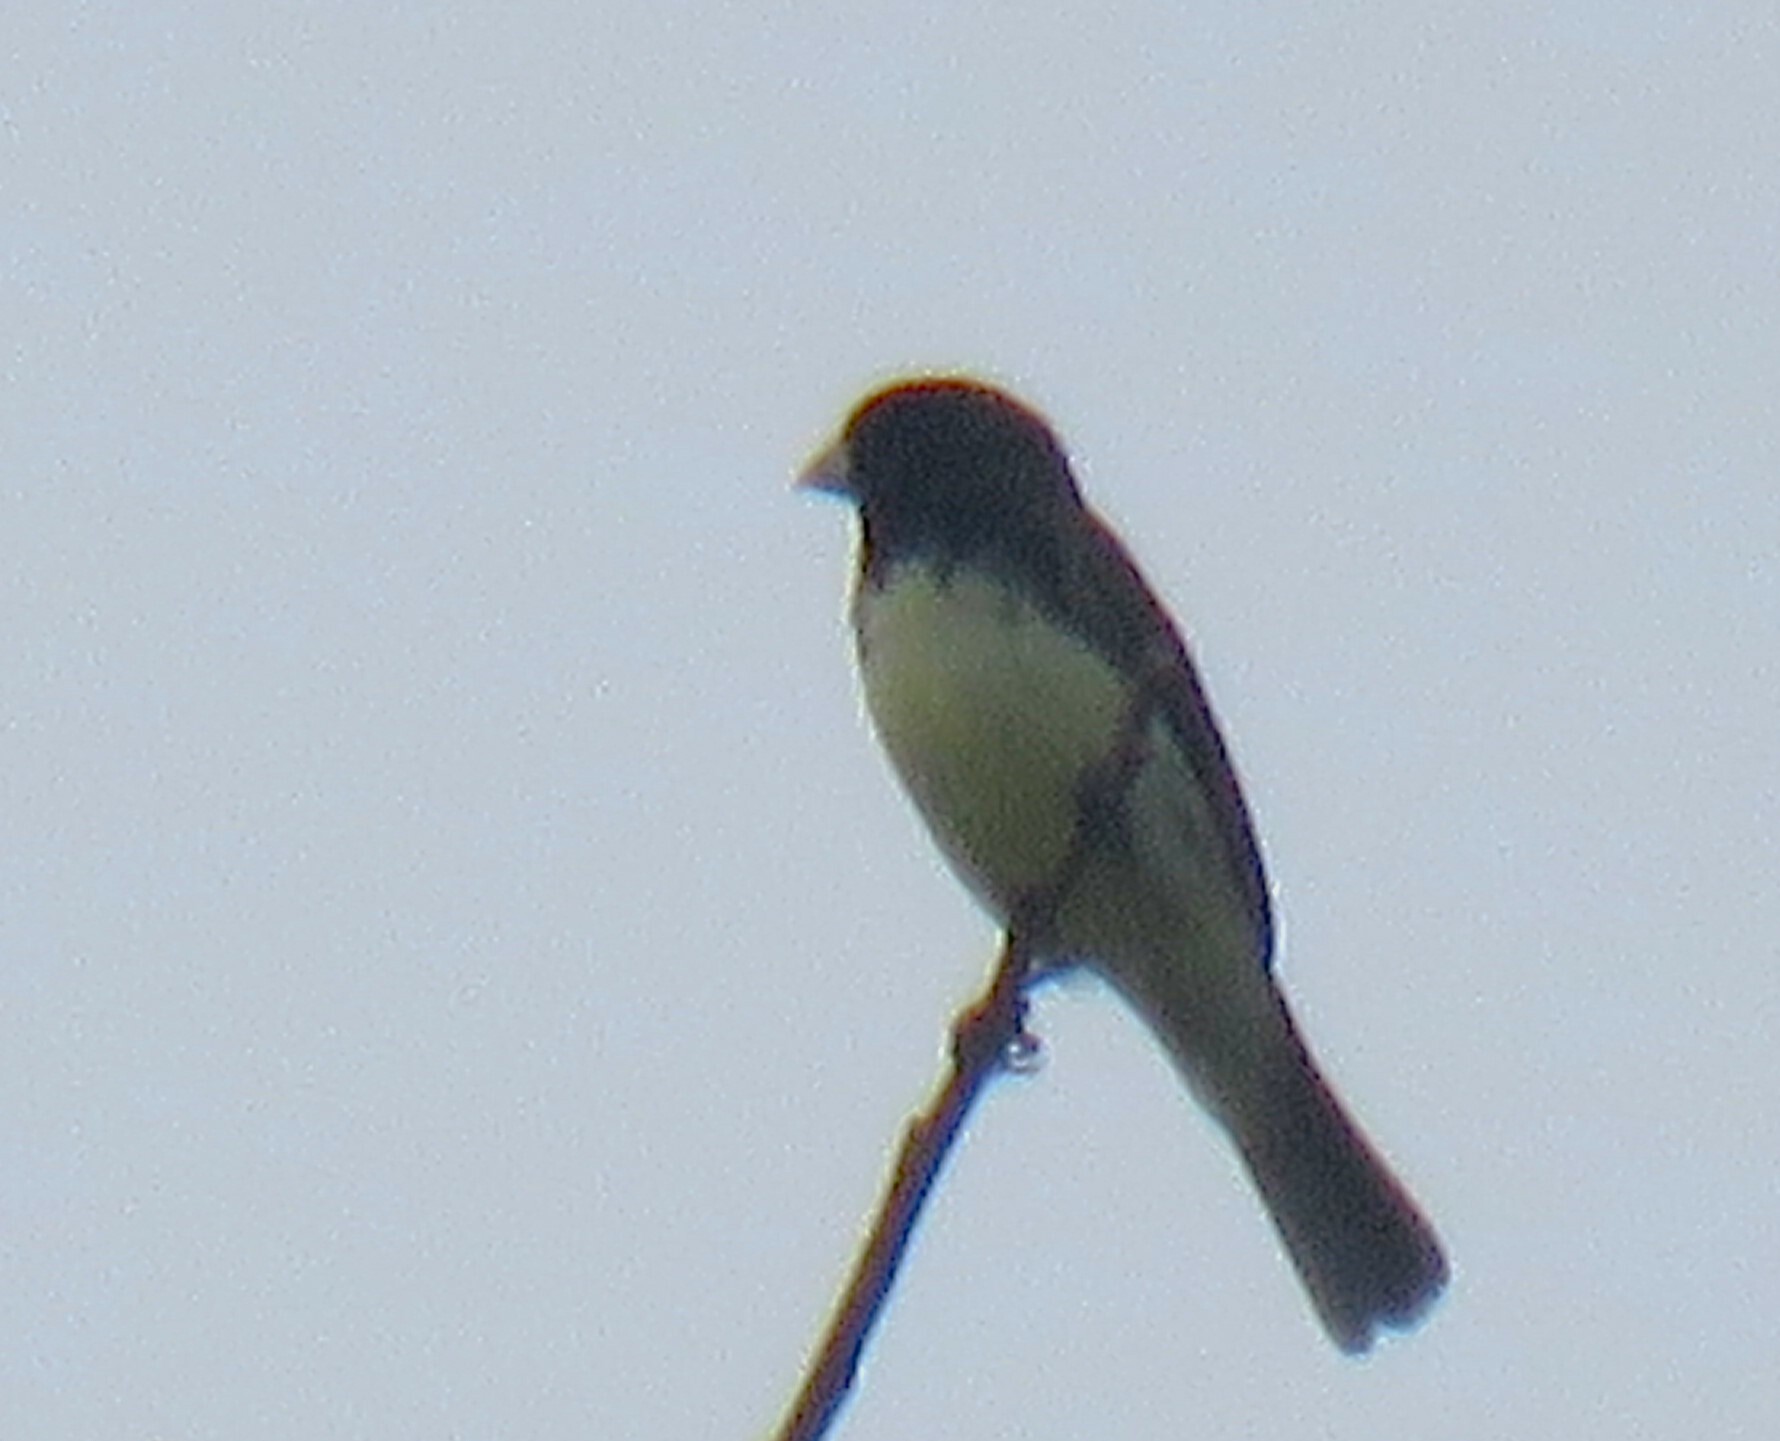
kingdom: Animalia
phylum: Chordata
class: Aves
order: Passeriformes
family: Thraupidae
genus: Sporophila
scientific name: Sporophila nigricollis
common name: Yellow-bellied seedeater
